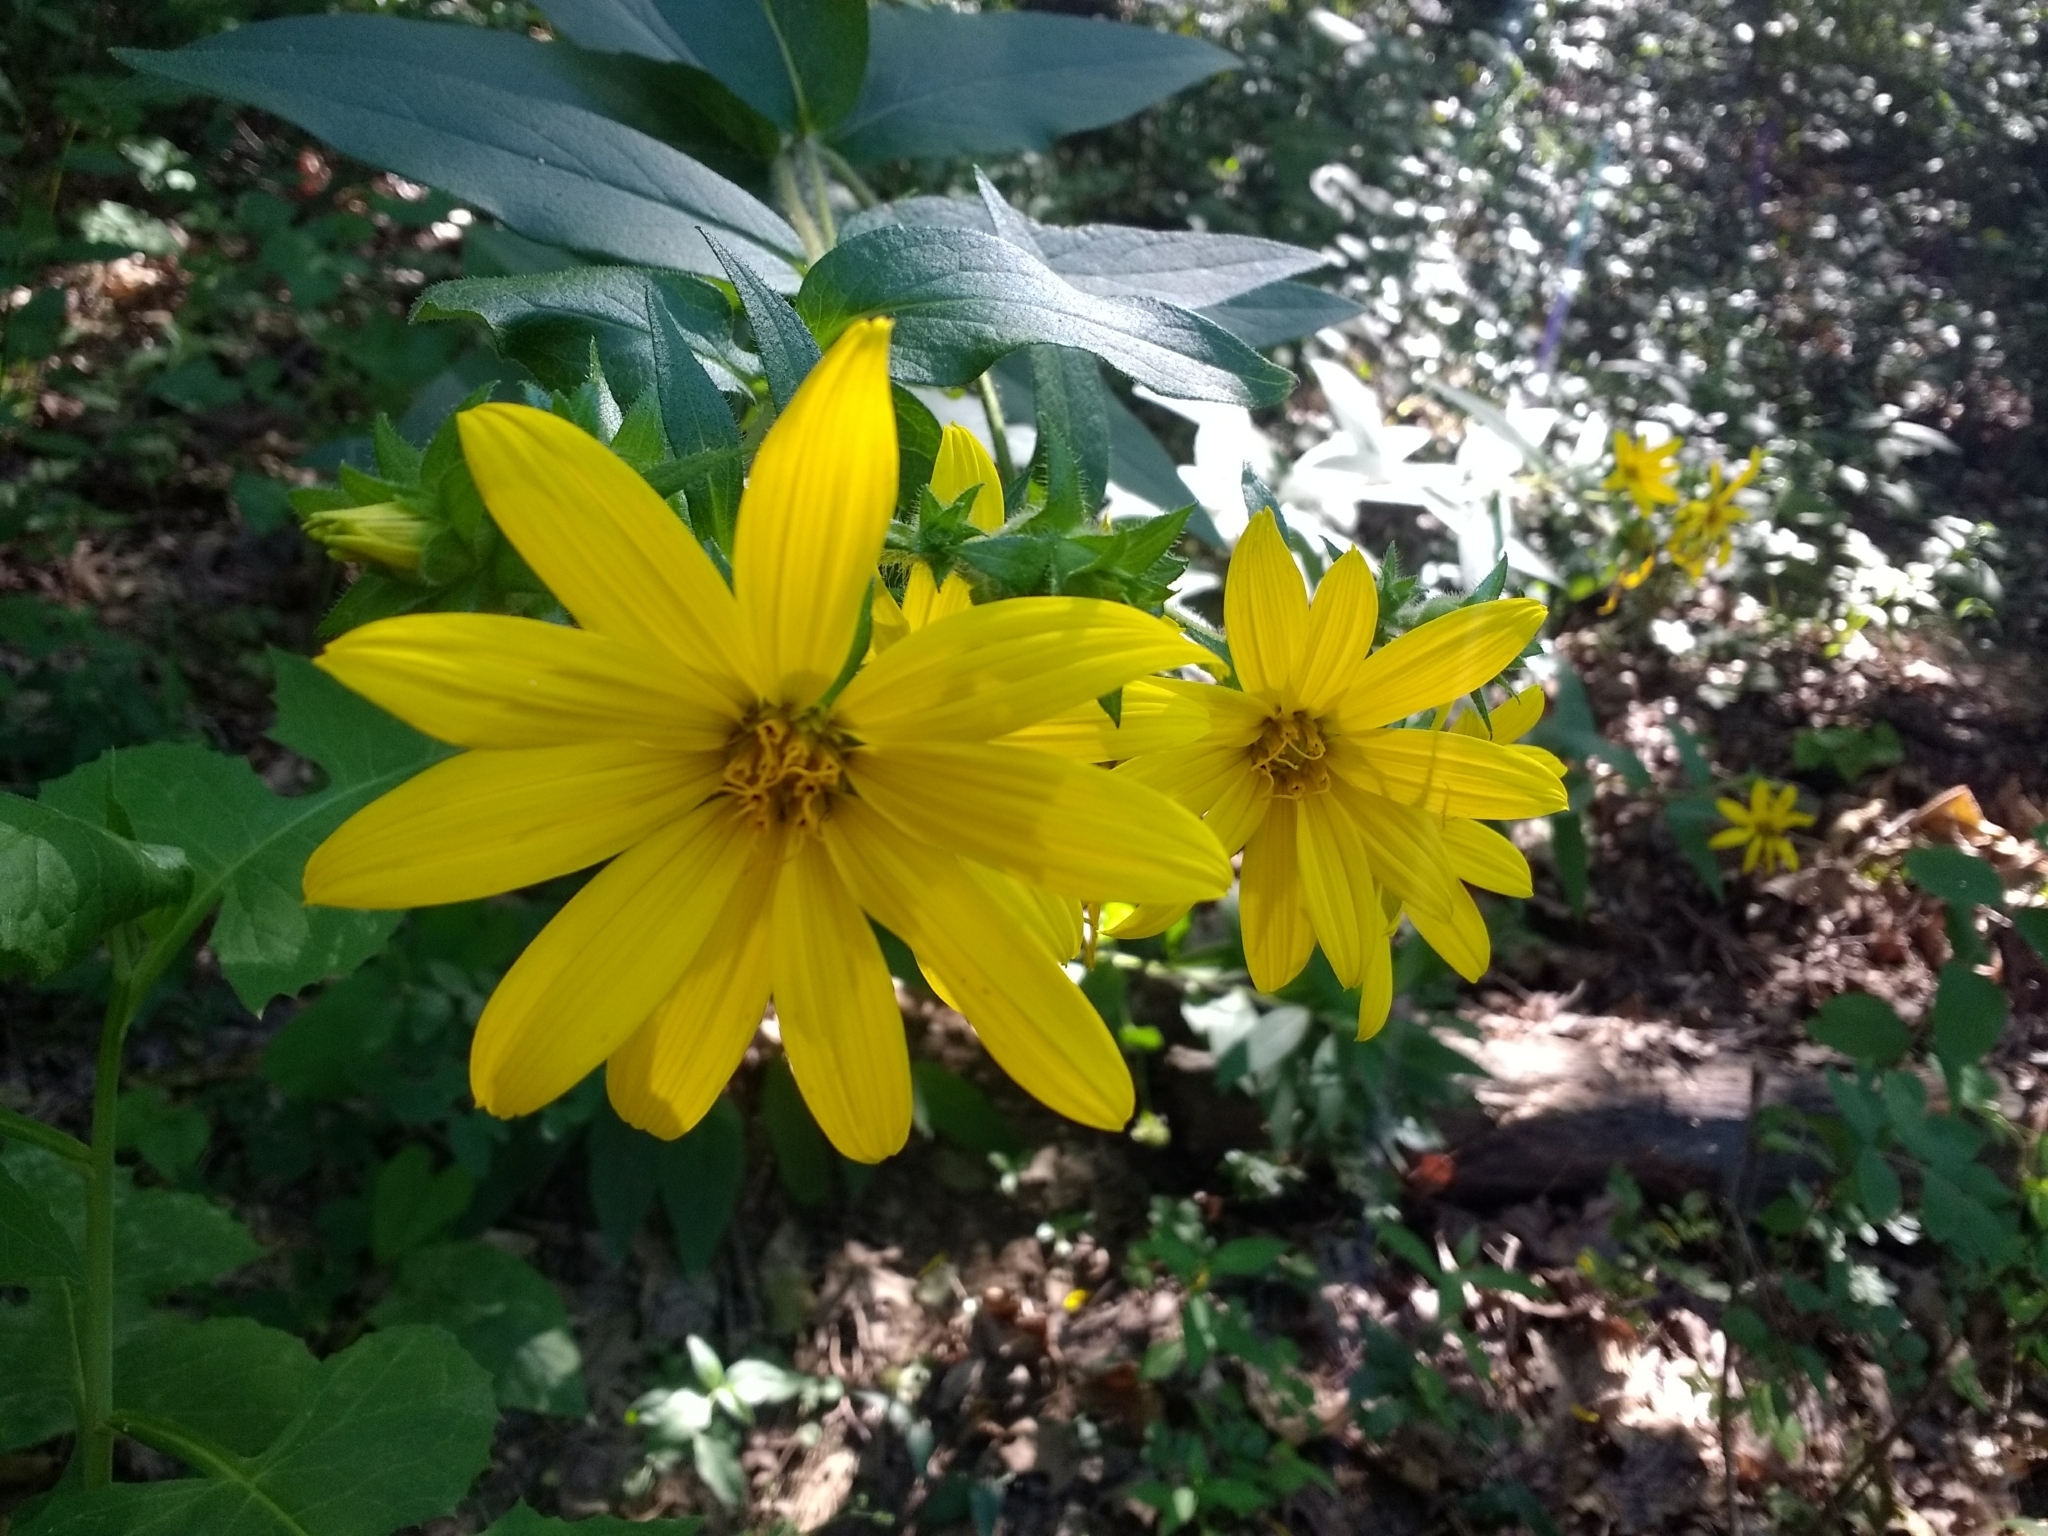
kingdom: Plantae
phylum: Tracheophyta
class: Magnoliopsida
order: Asterales
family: Asteraceae
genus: Silphium
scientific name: Silphium asteriscus
